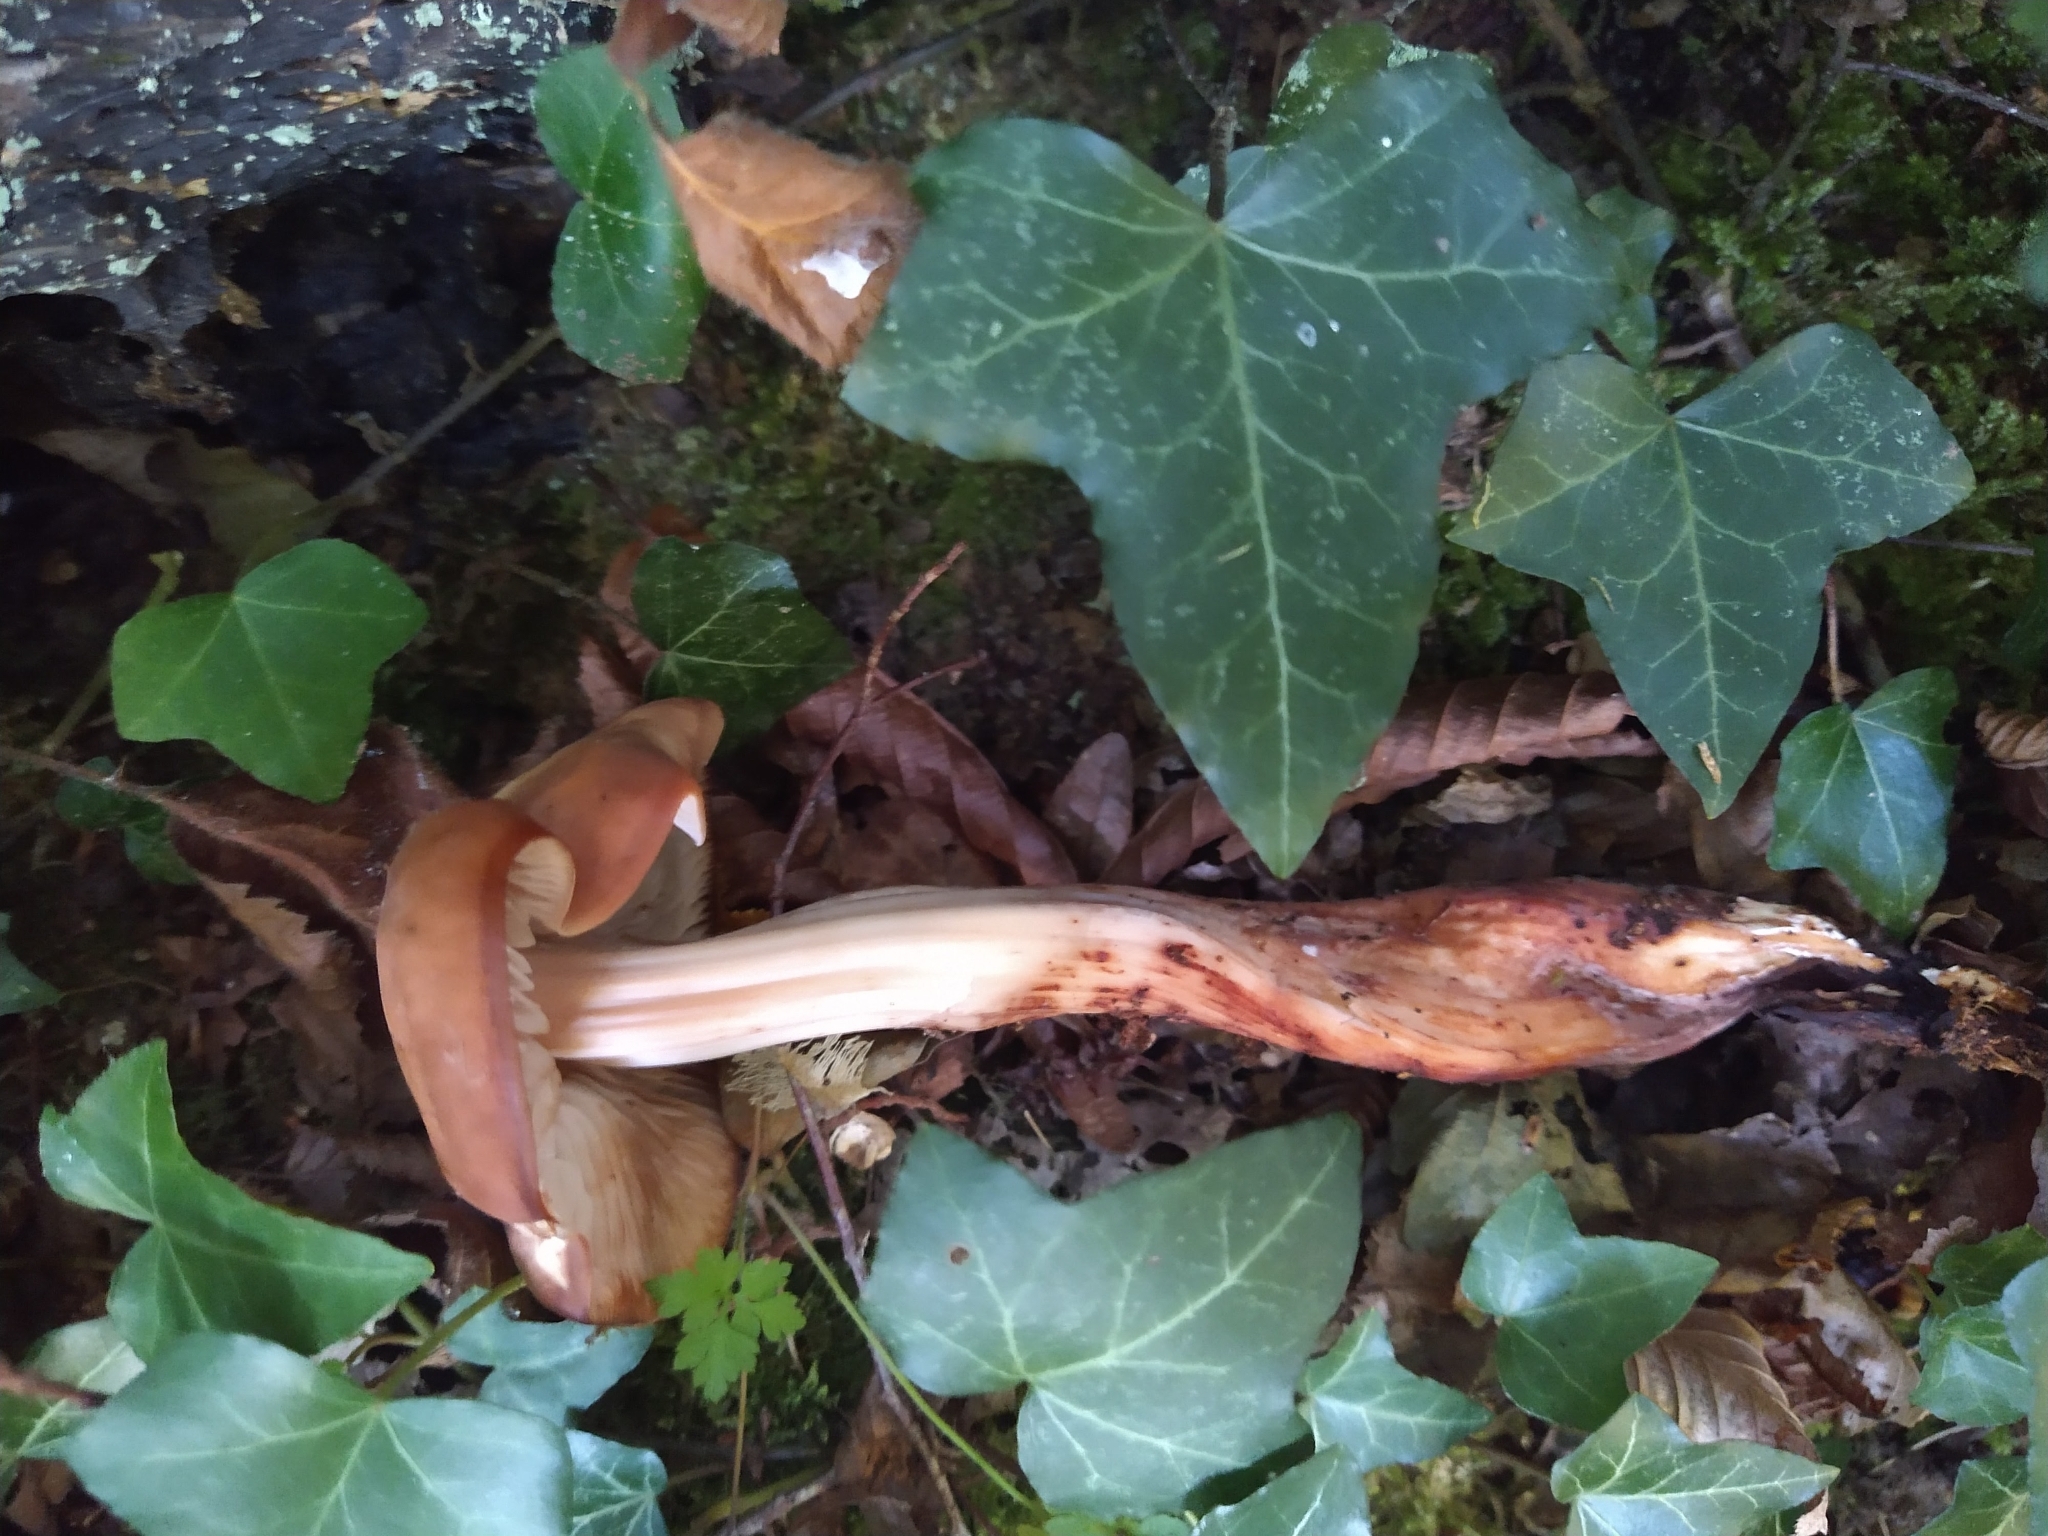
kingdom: Fungi
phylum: Basidiomycota
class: Agaricomycetes
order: Agaricales
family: Omphalotaceae
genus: Gymnopus
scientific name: Gymnopus fusipes
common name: Spindle shank
